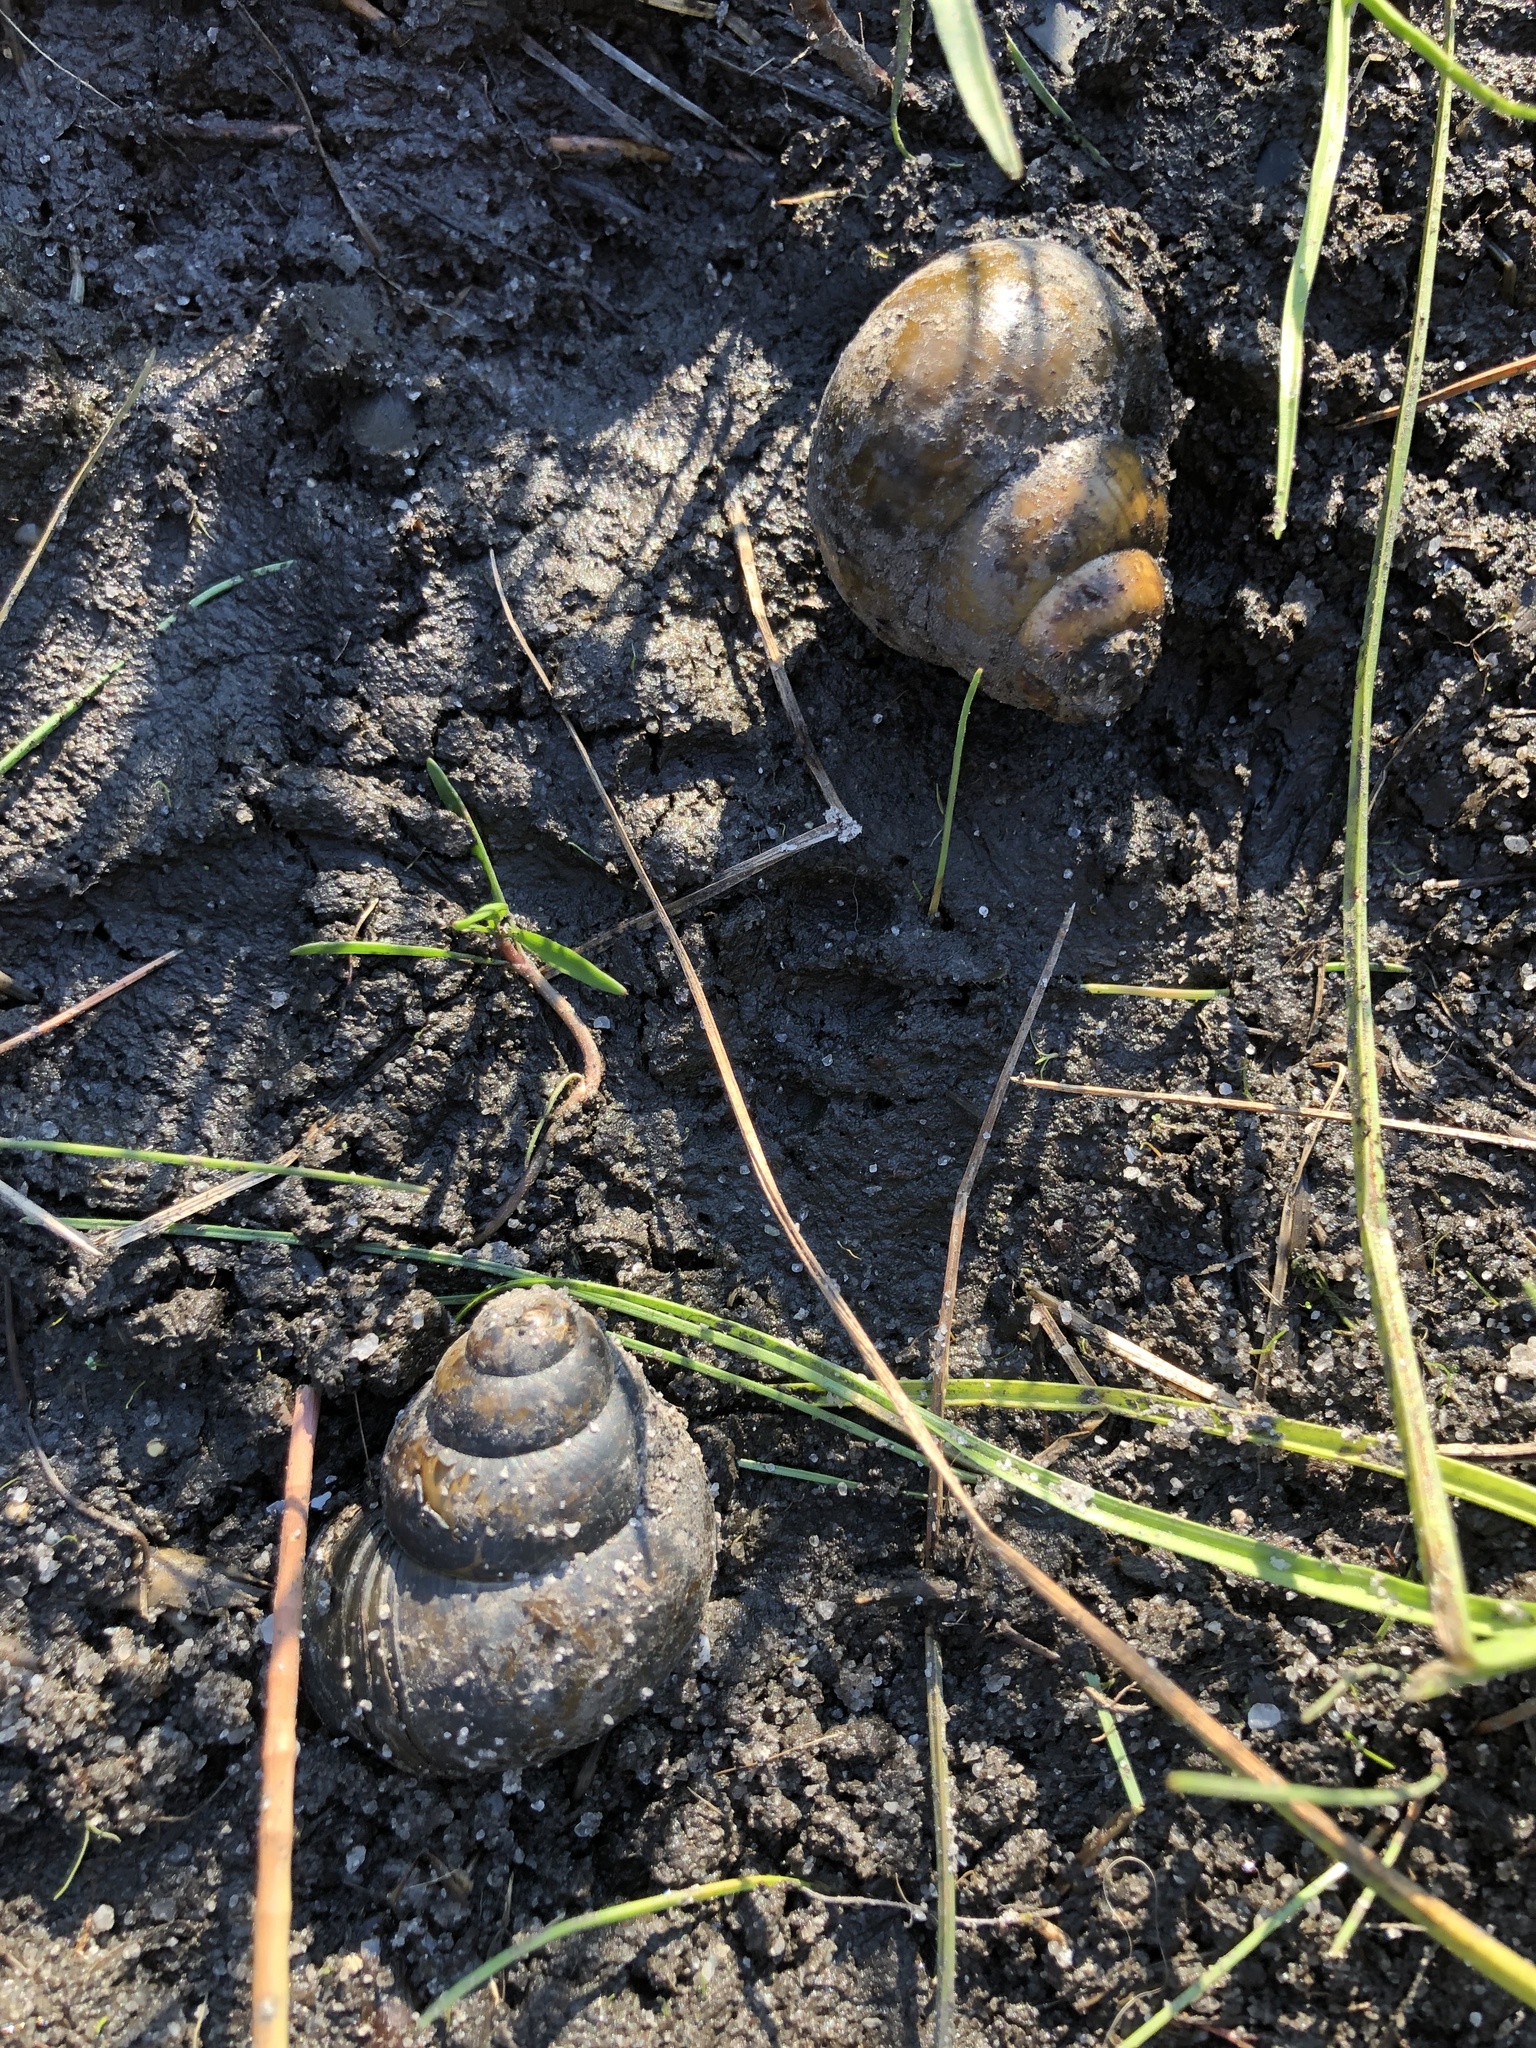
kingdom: Animalia
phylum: Mollusca
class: Gastropoda
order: Architaenioglossa
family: Viviparidae
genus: Cipangopaludina
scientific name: Cipangopaludina chinensis
